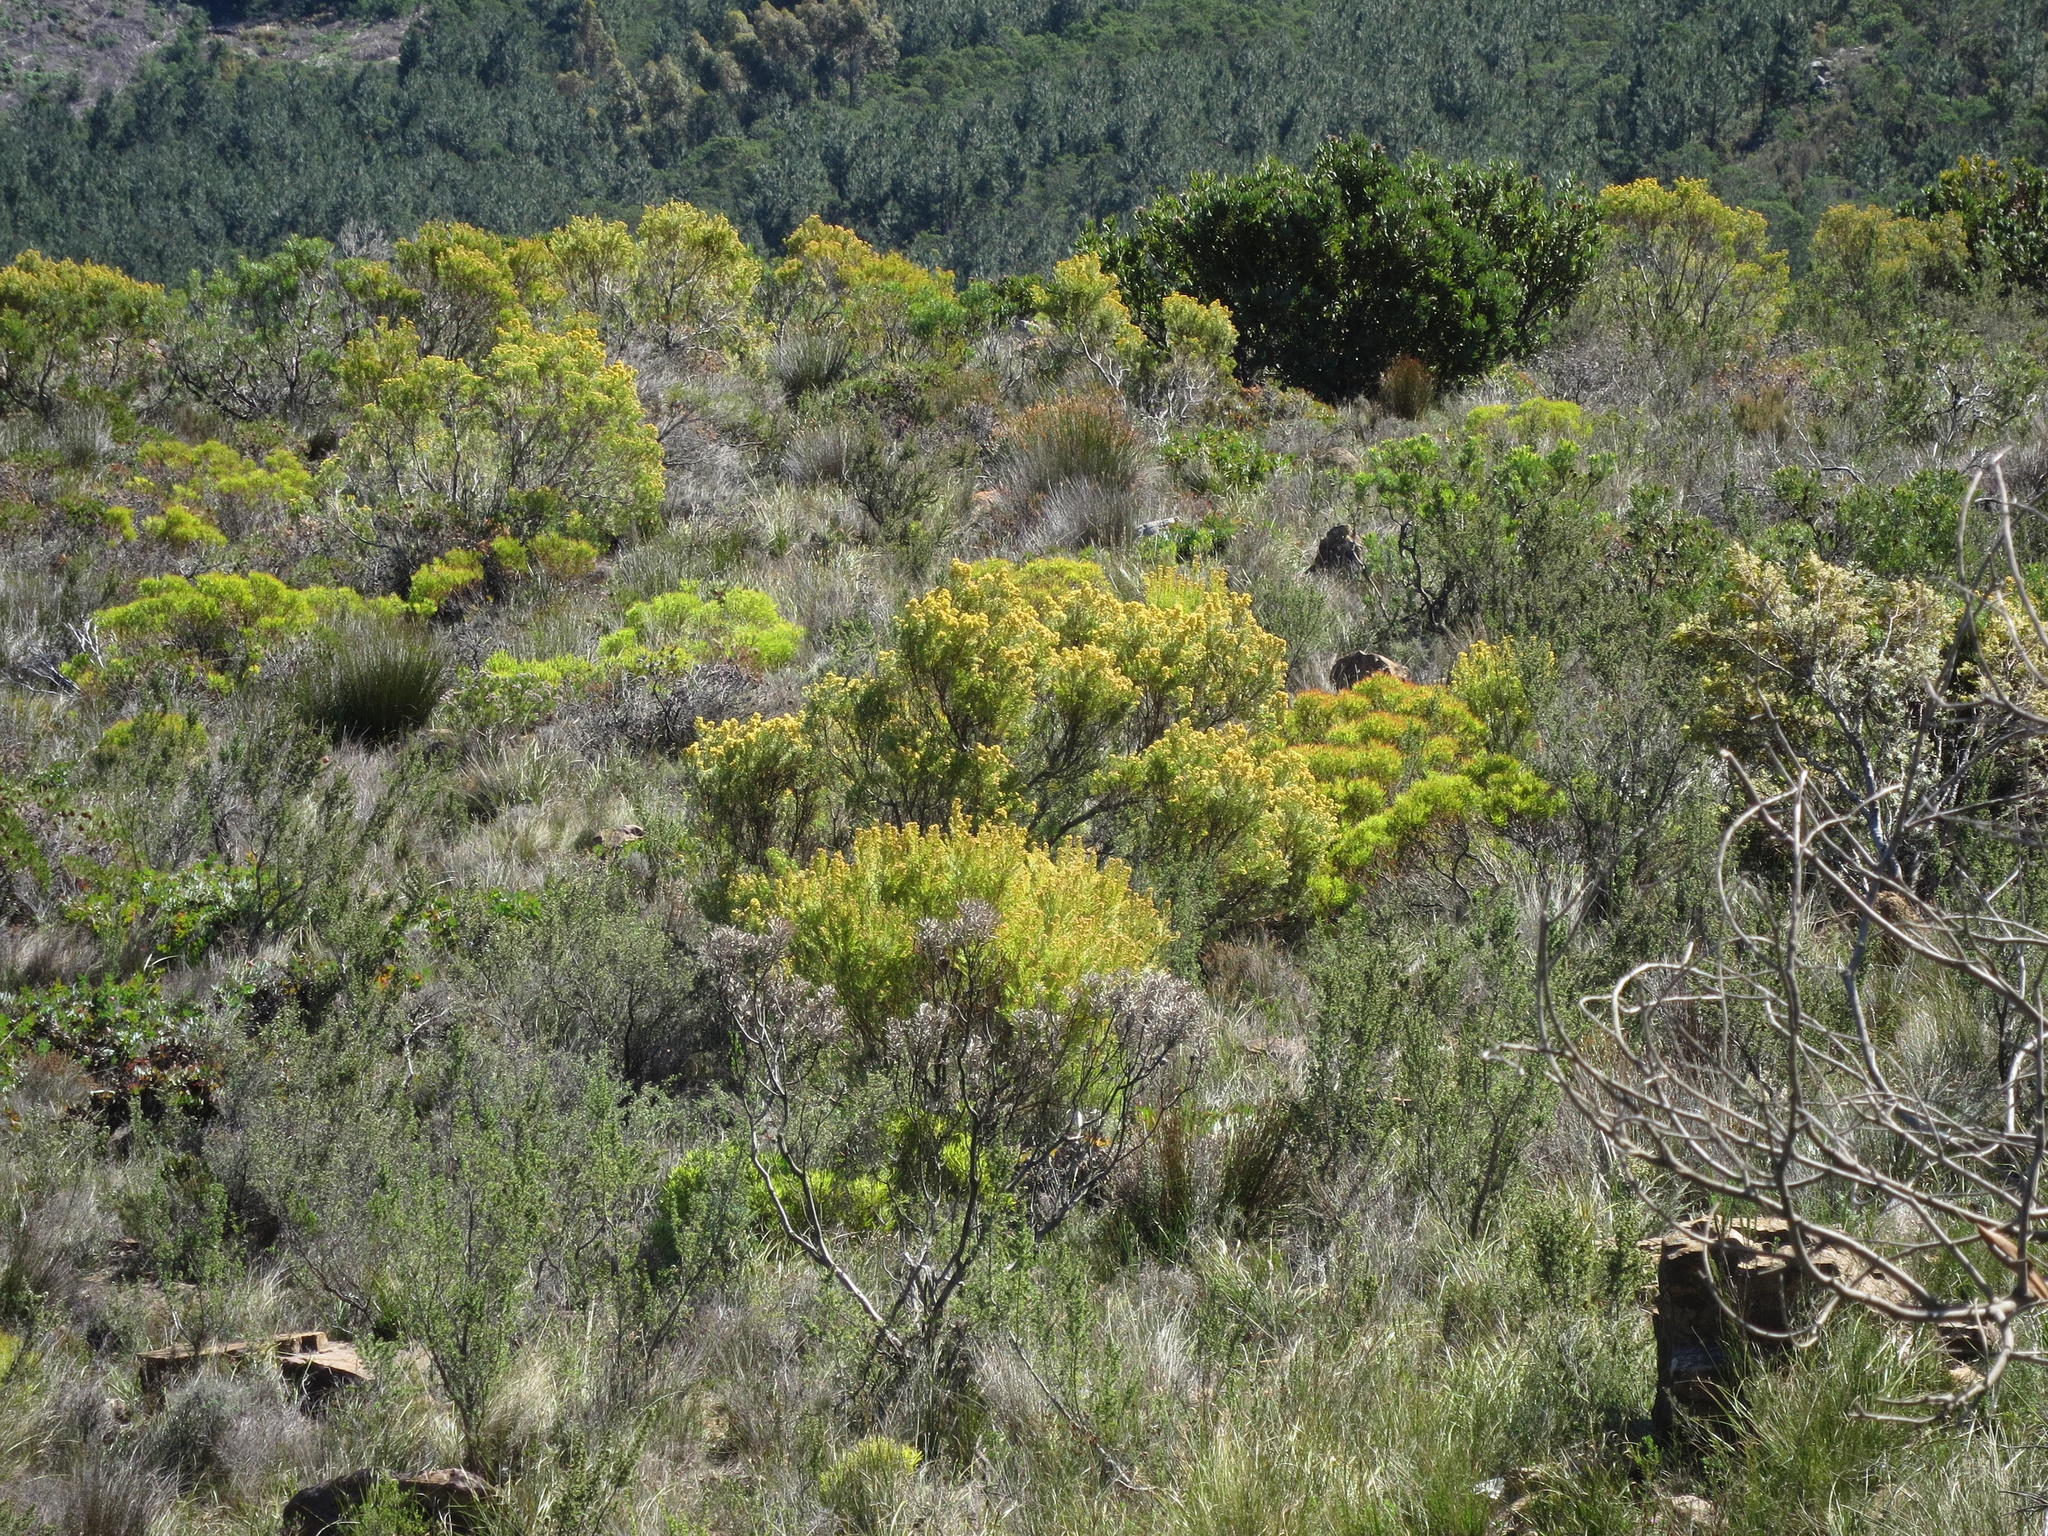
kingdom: Plantae
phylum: Tracheophyta
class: Magnoliopsida
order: Proteales
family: Proteaceae
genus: Leucadendron
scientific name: Leucadendron rubrum
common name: Spinning top
